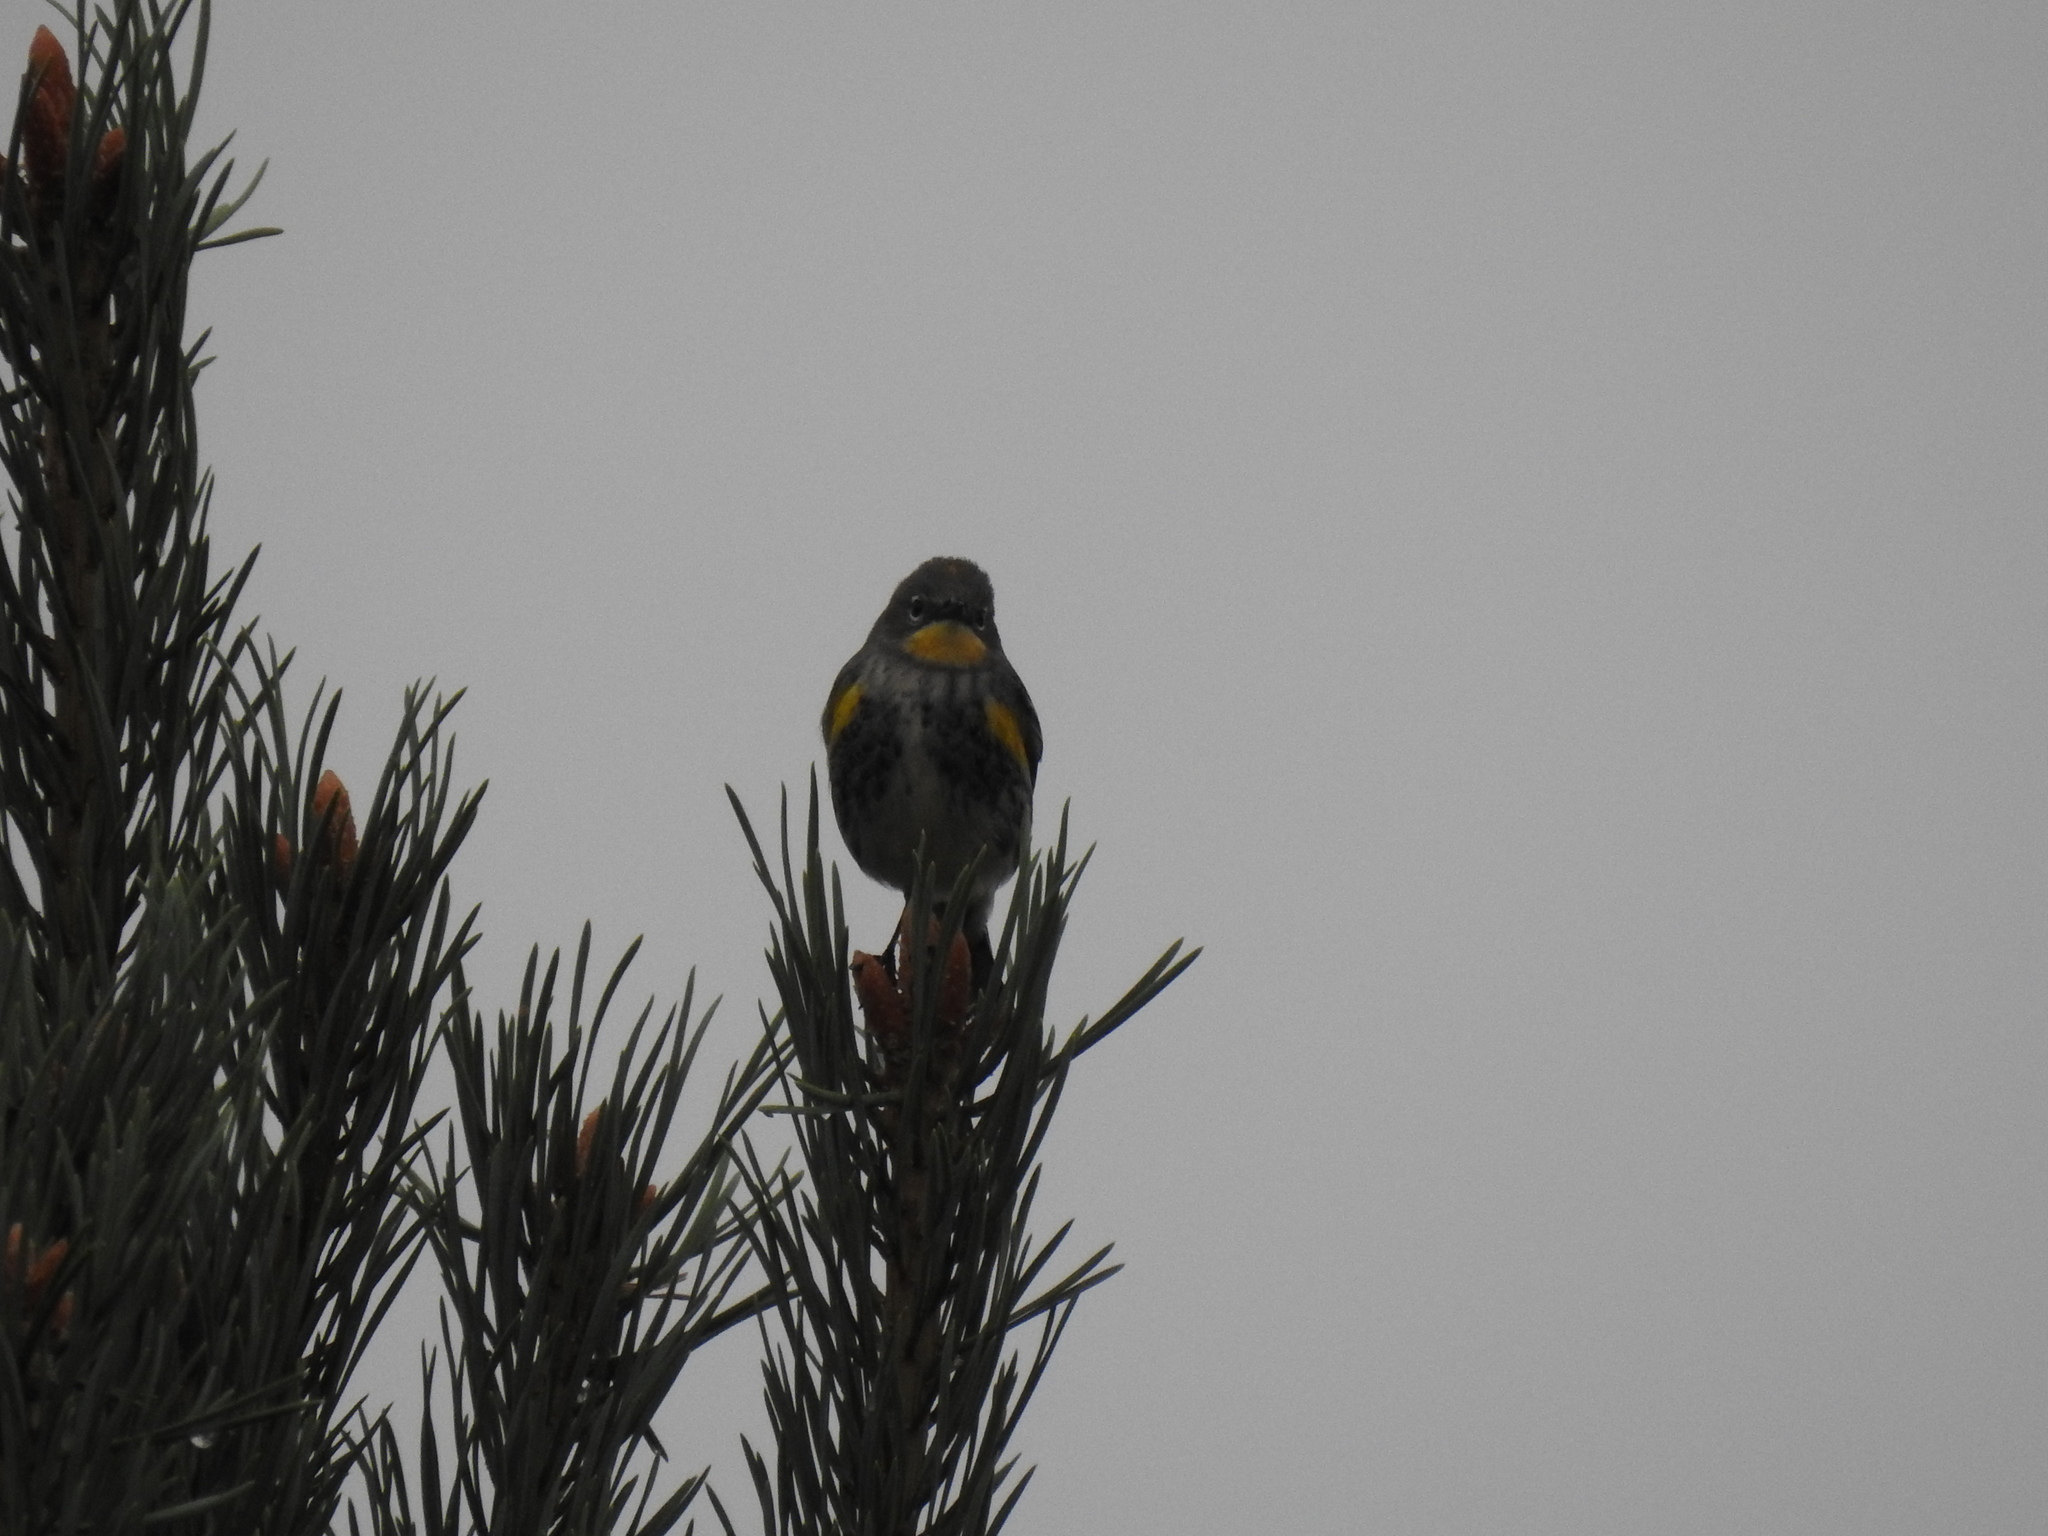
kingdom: Animalia
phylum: Chordata
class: Aves
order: Passeriformes
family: Parulidae
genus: Setophaga
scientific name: Setophaga auduboni
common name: Audubon's warbler
